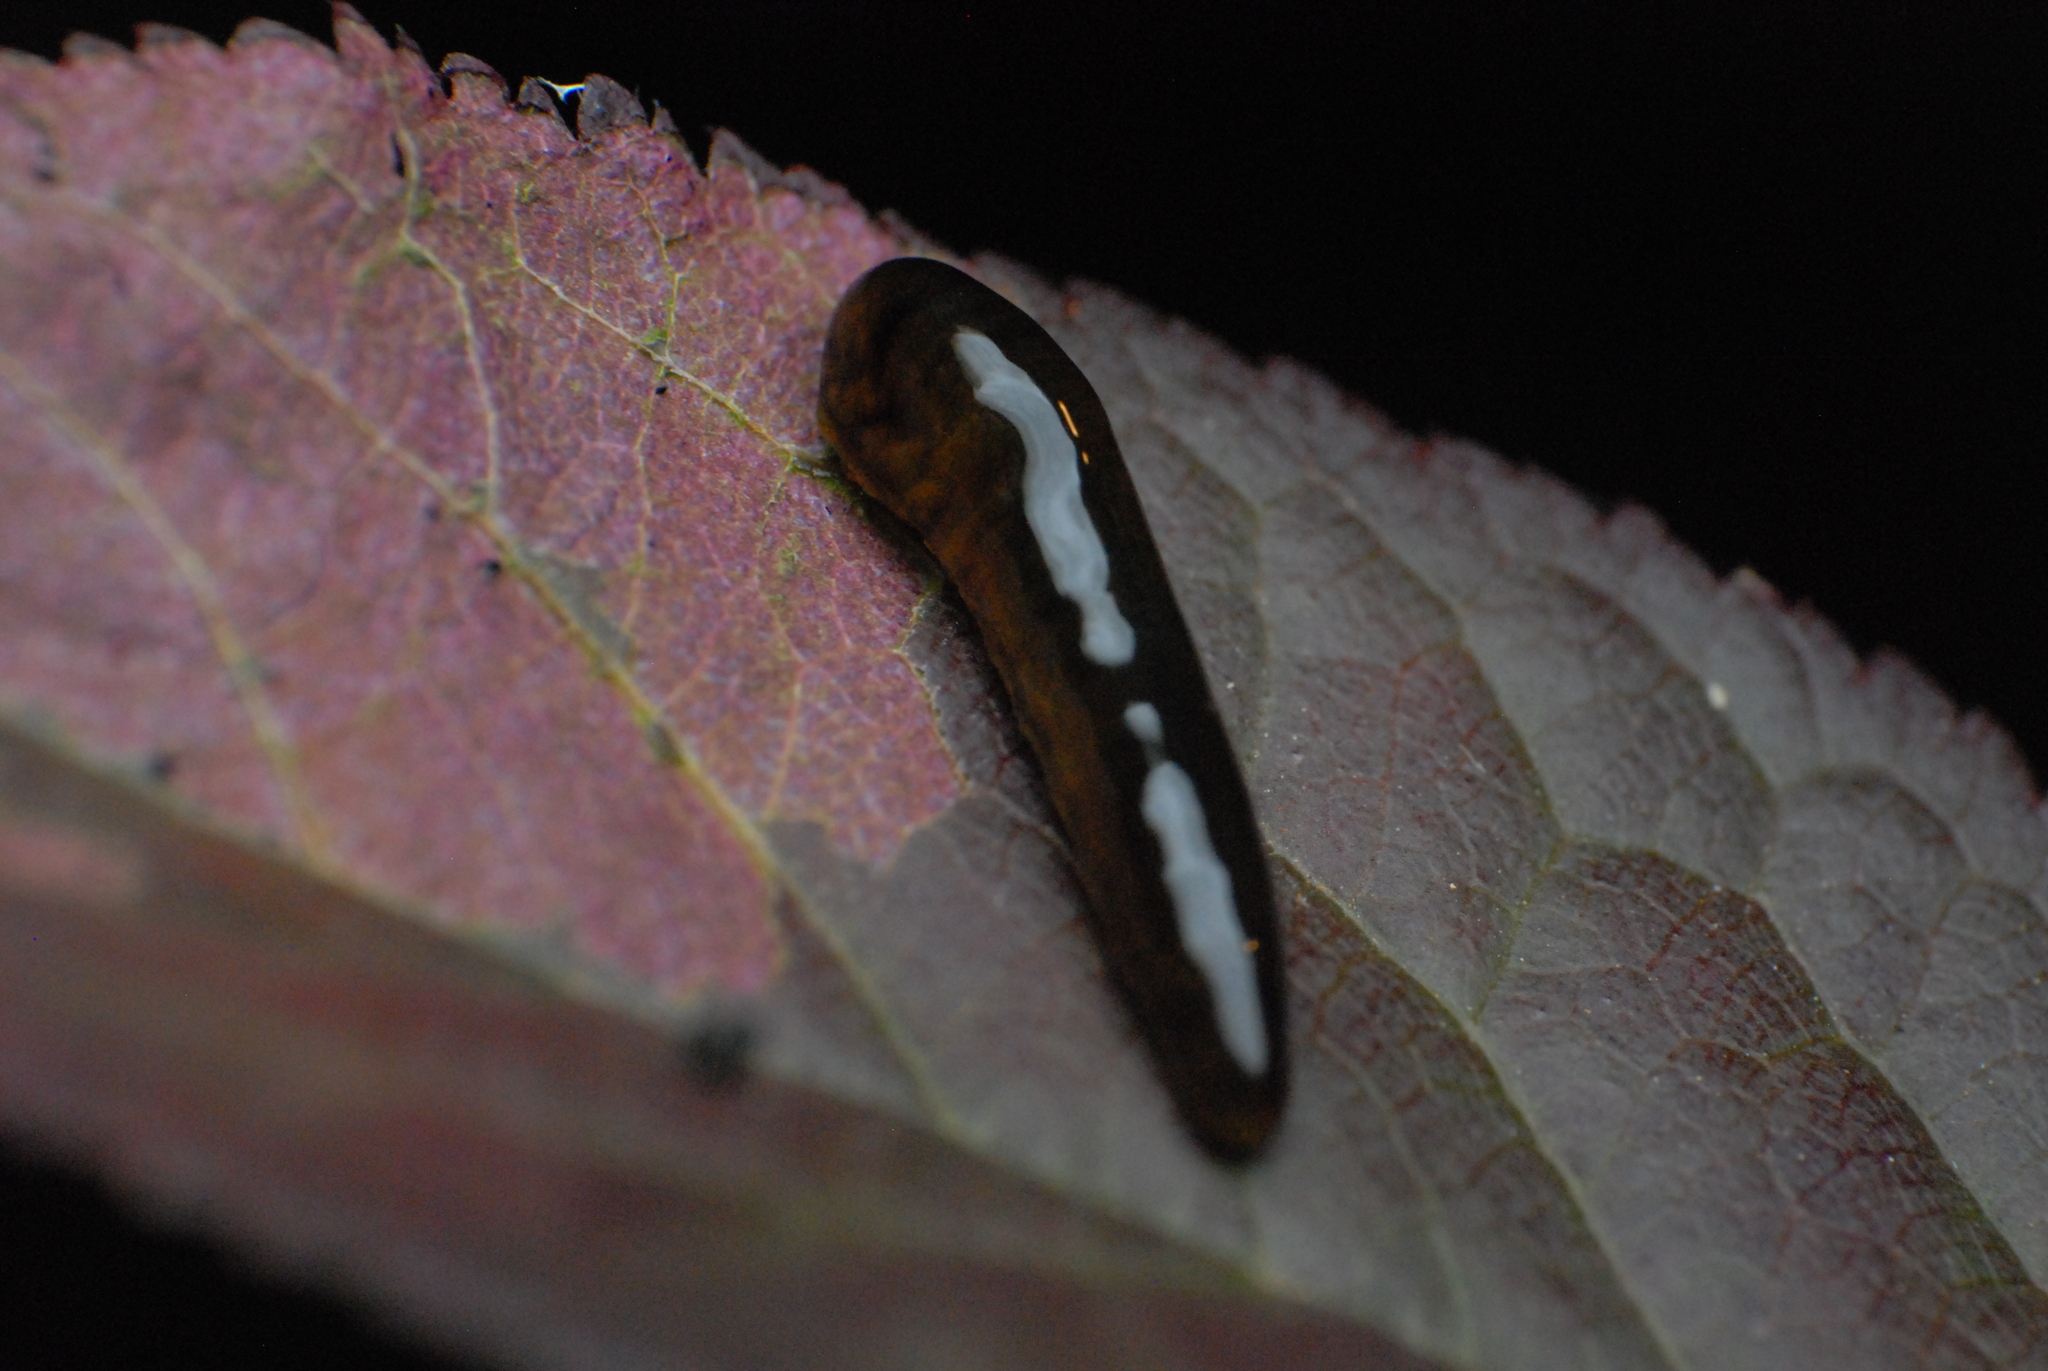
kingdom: Animalia
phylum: Arthropoda
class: Insecta
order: Hymenoptera
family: Tenthredinidae
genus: Caliroa
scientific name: Caliroa cerasi
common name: Pear sawfly
